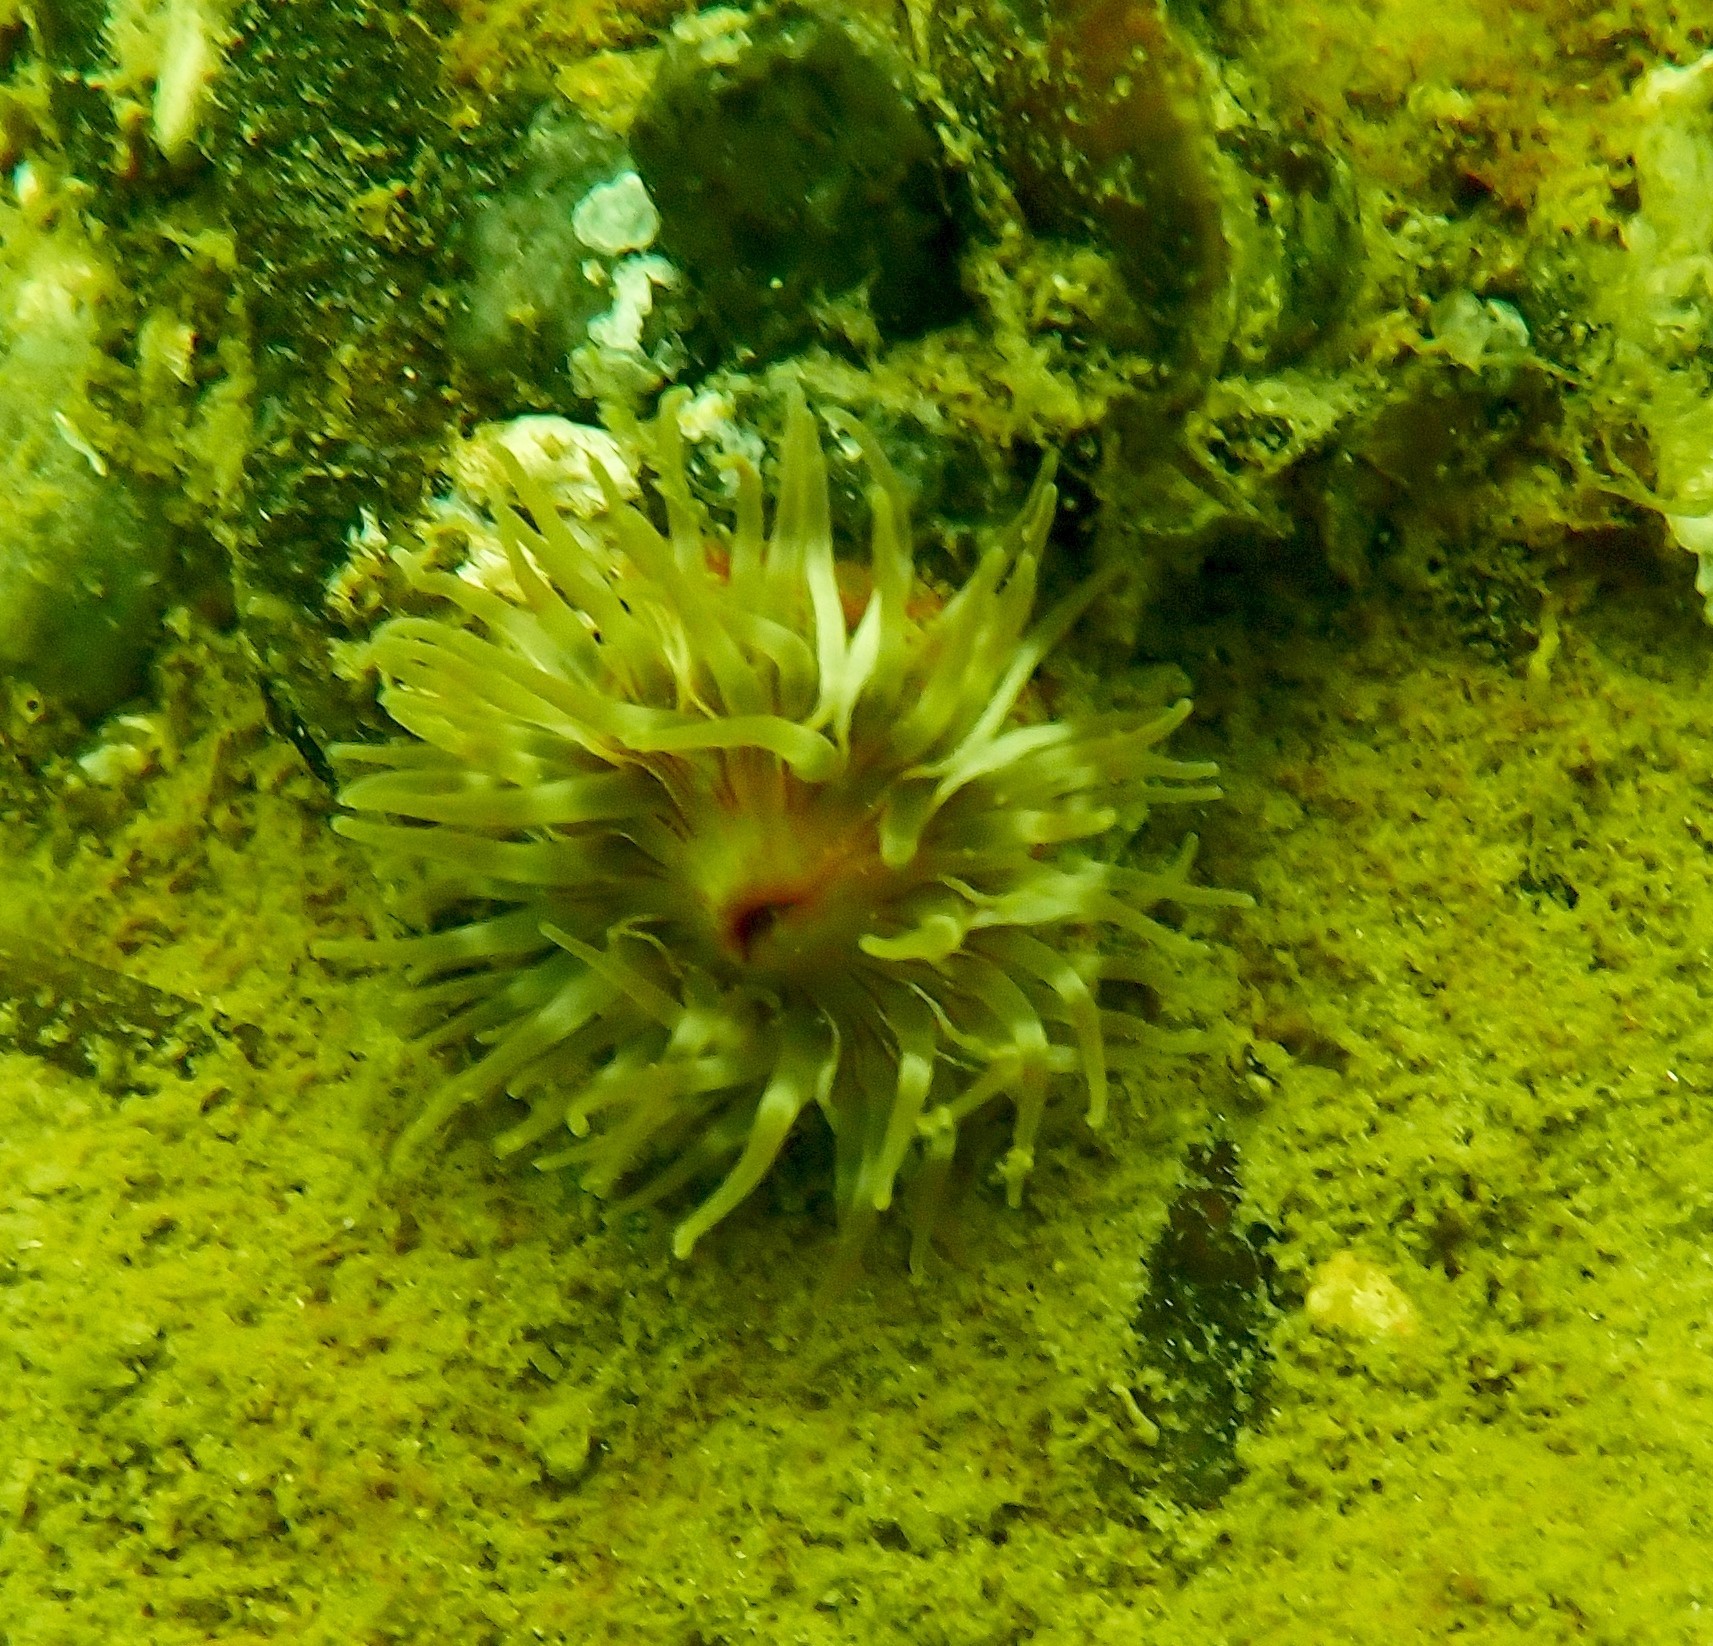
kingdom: Animalia
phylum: Cnidaria
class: Anthozoa
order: Actiniaria
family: Actiniidae
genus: Urticina
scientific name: Urticina felina
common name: Dahlia anemone
